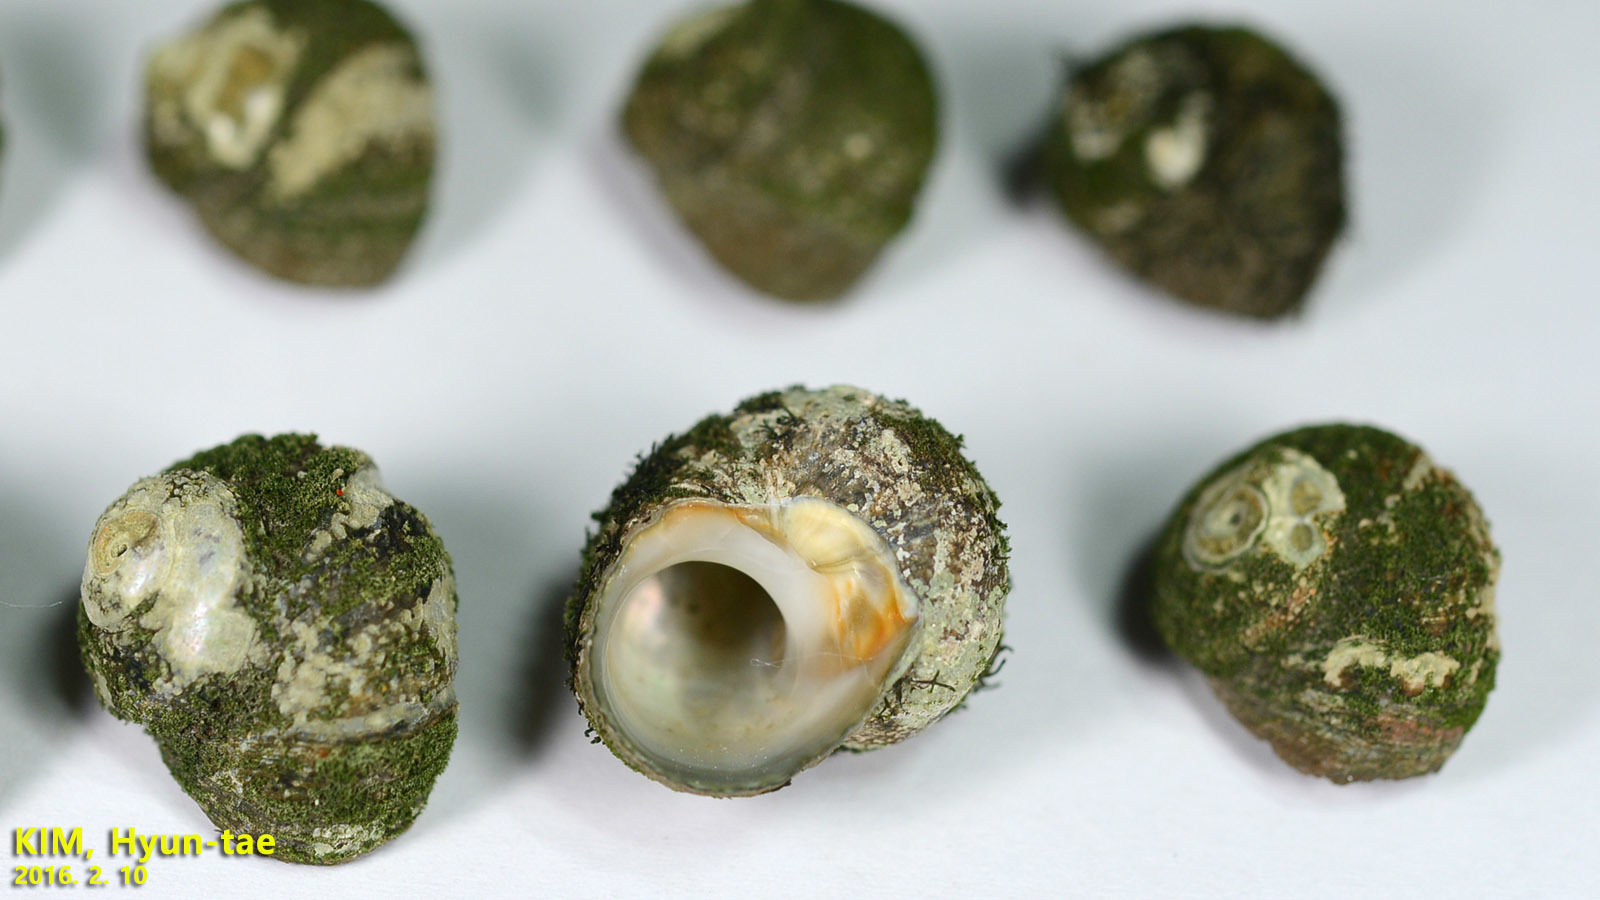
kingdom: Animalia
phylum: Mollusca
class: Gastropoda
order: Trochida
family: Turbinidae
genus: Lunella
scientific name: Lunella correensis
